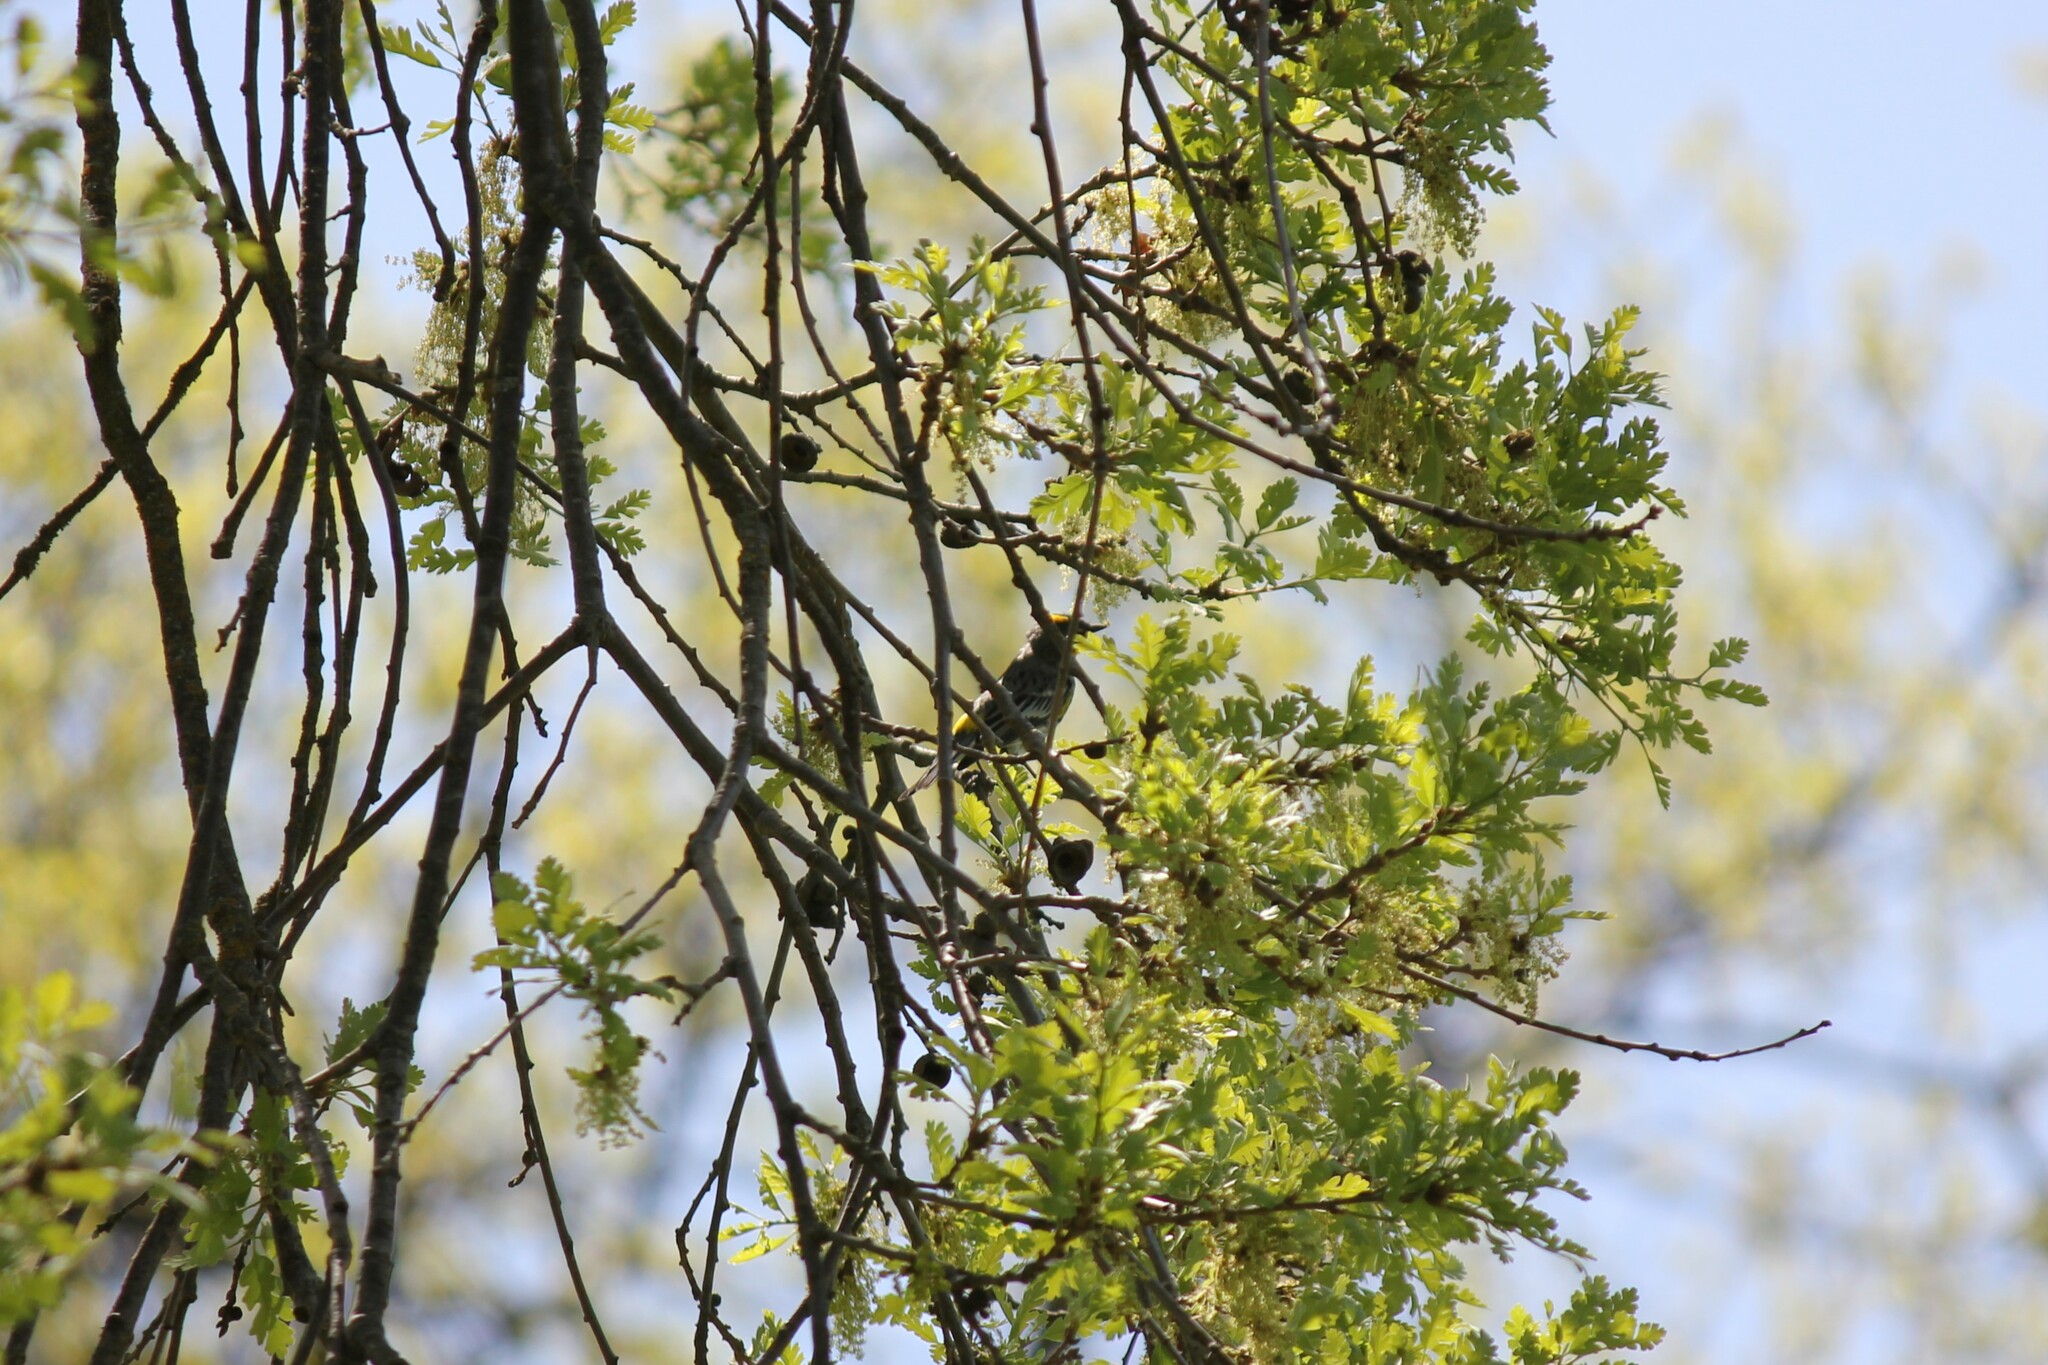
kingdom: Animalia
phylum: Chordata
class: Aves
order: Passeriformes
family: Parulidae
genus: Setophaga
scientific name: Setophaga coronata
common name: Myrtle warbler
